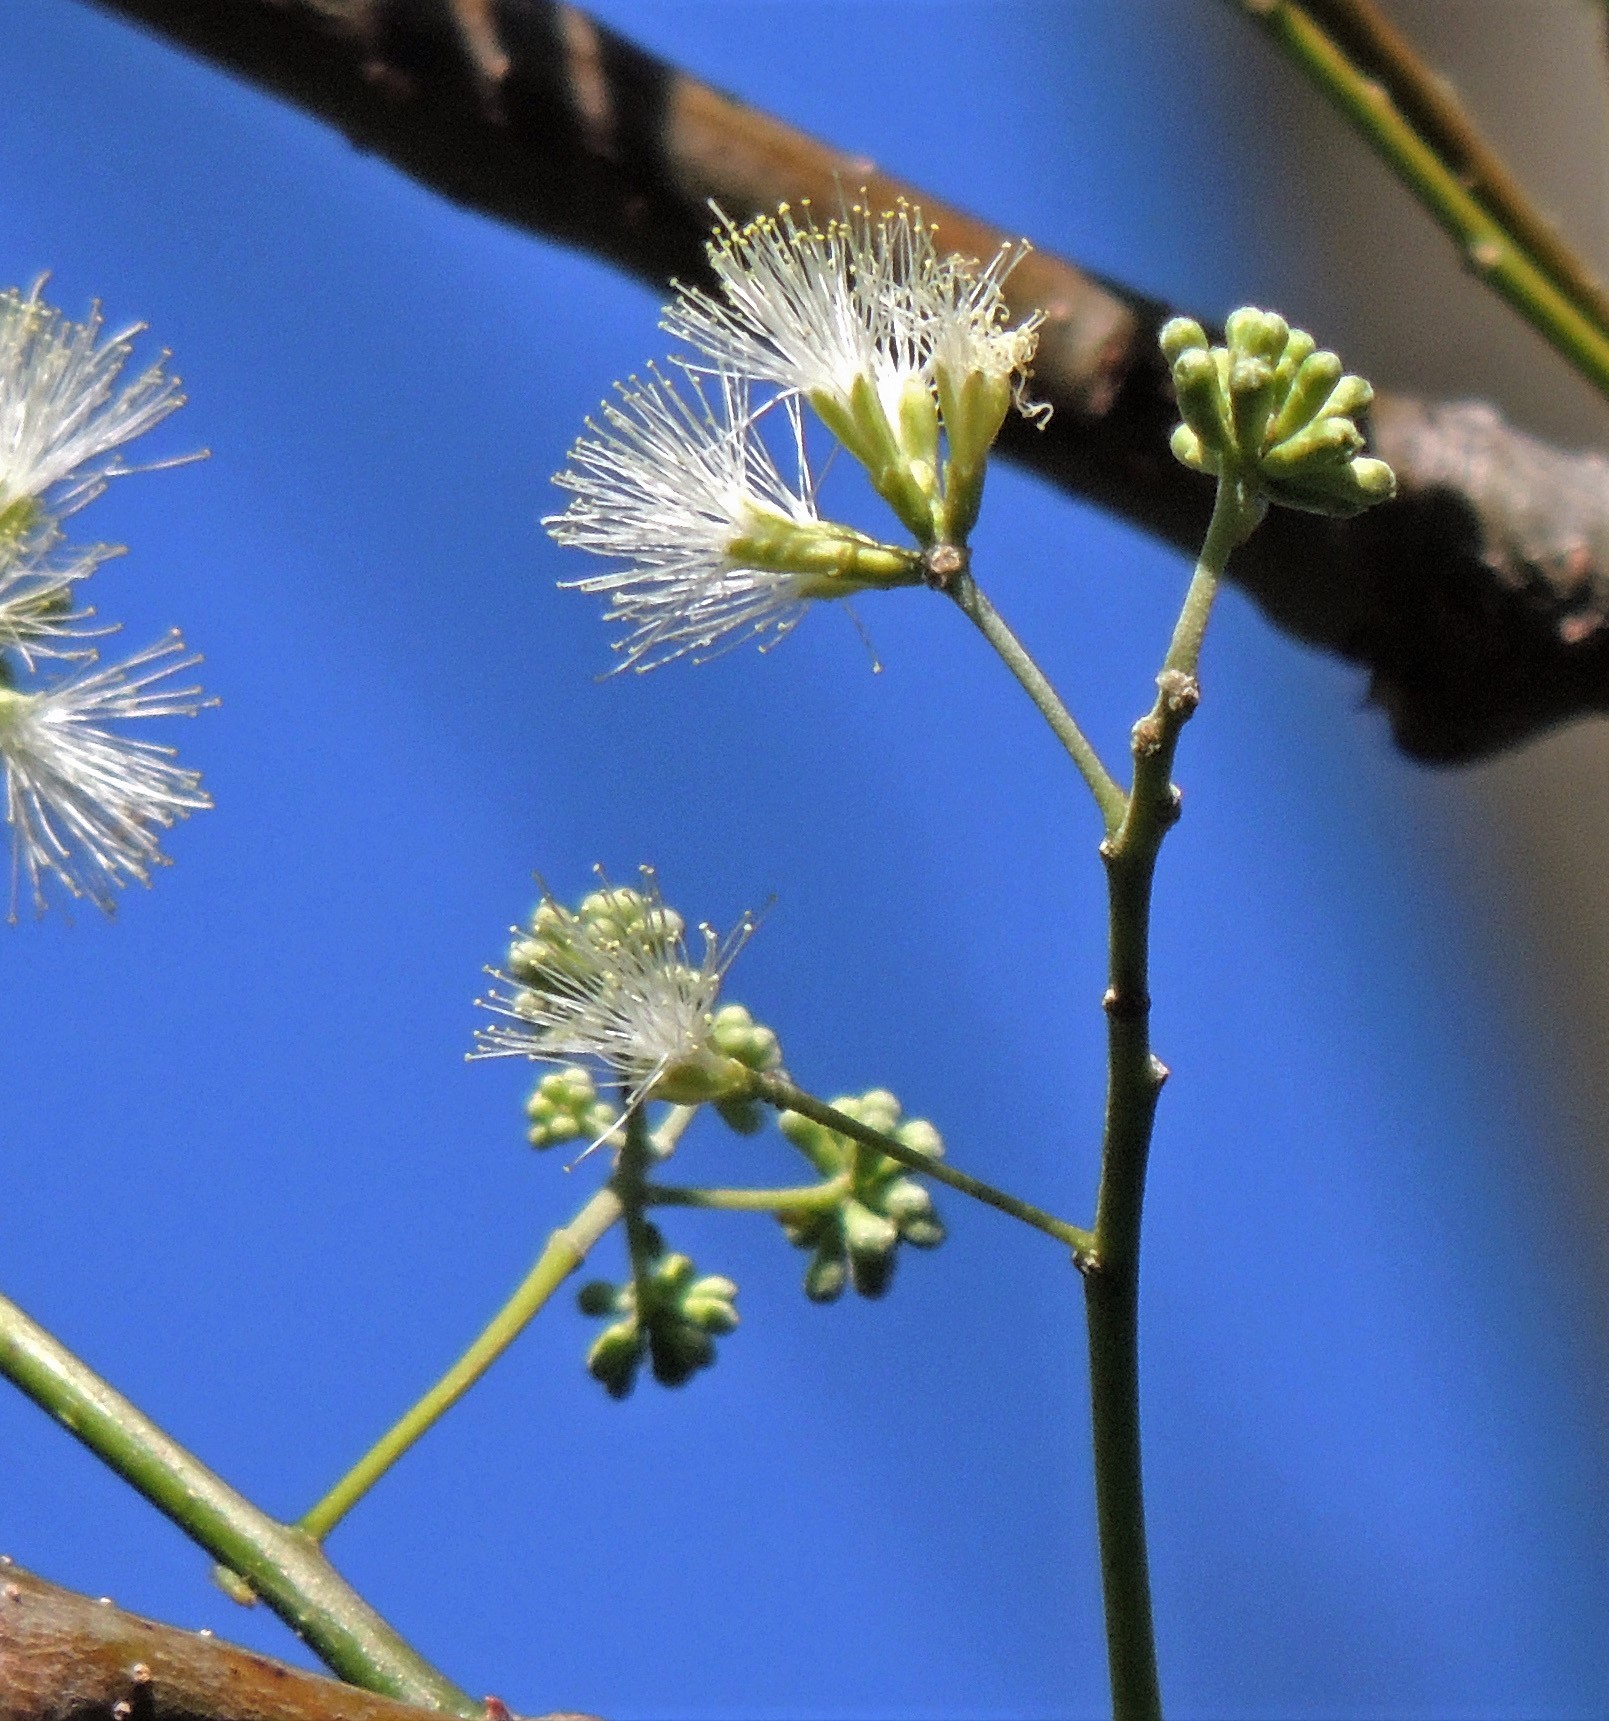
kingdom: Plantae
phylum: Tracheophyta
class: Magnoliopsida
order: Fabales
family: Fabaceae
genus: Inga
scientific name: Inga uraguensis
